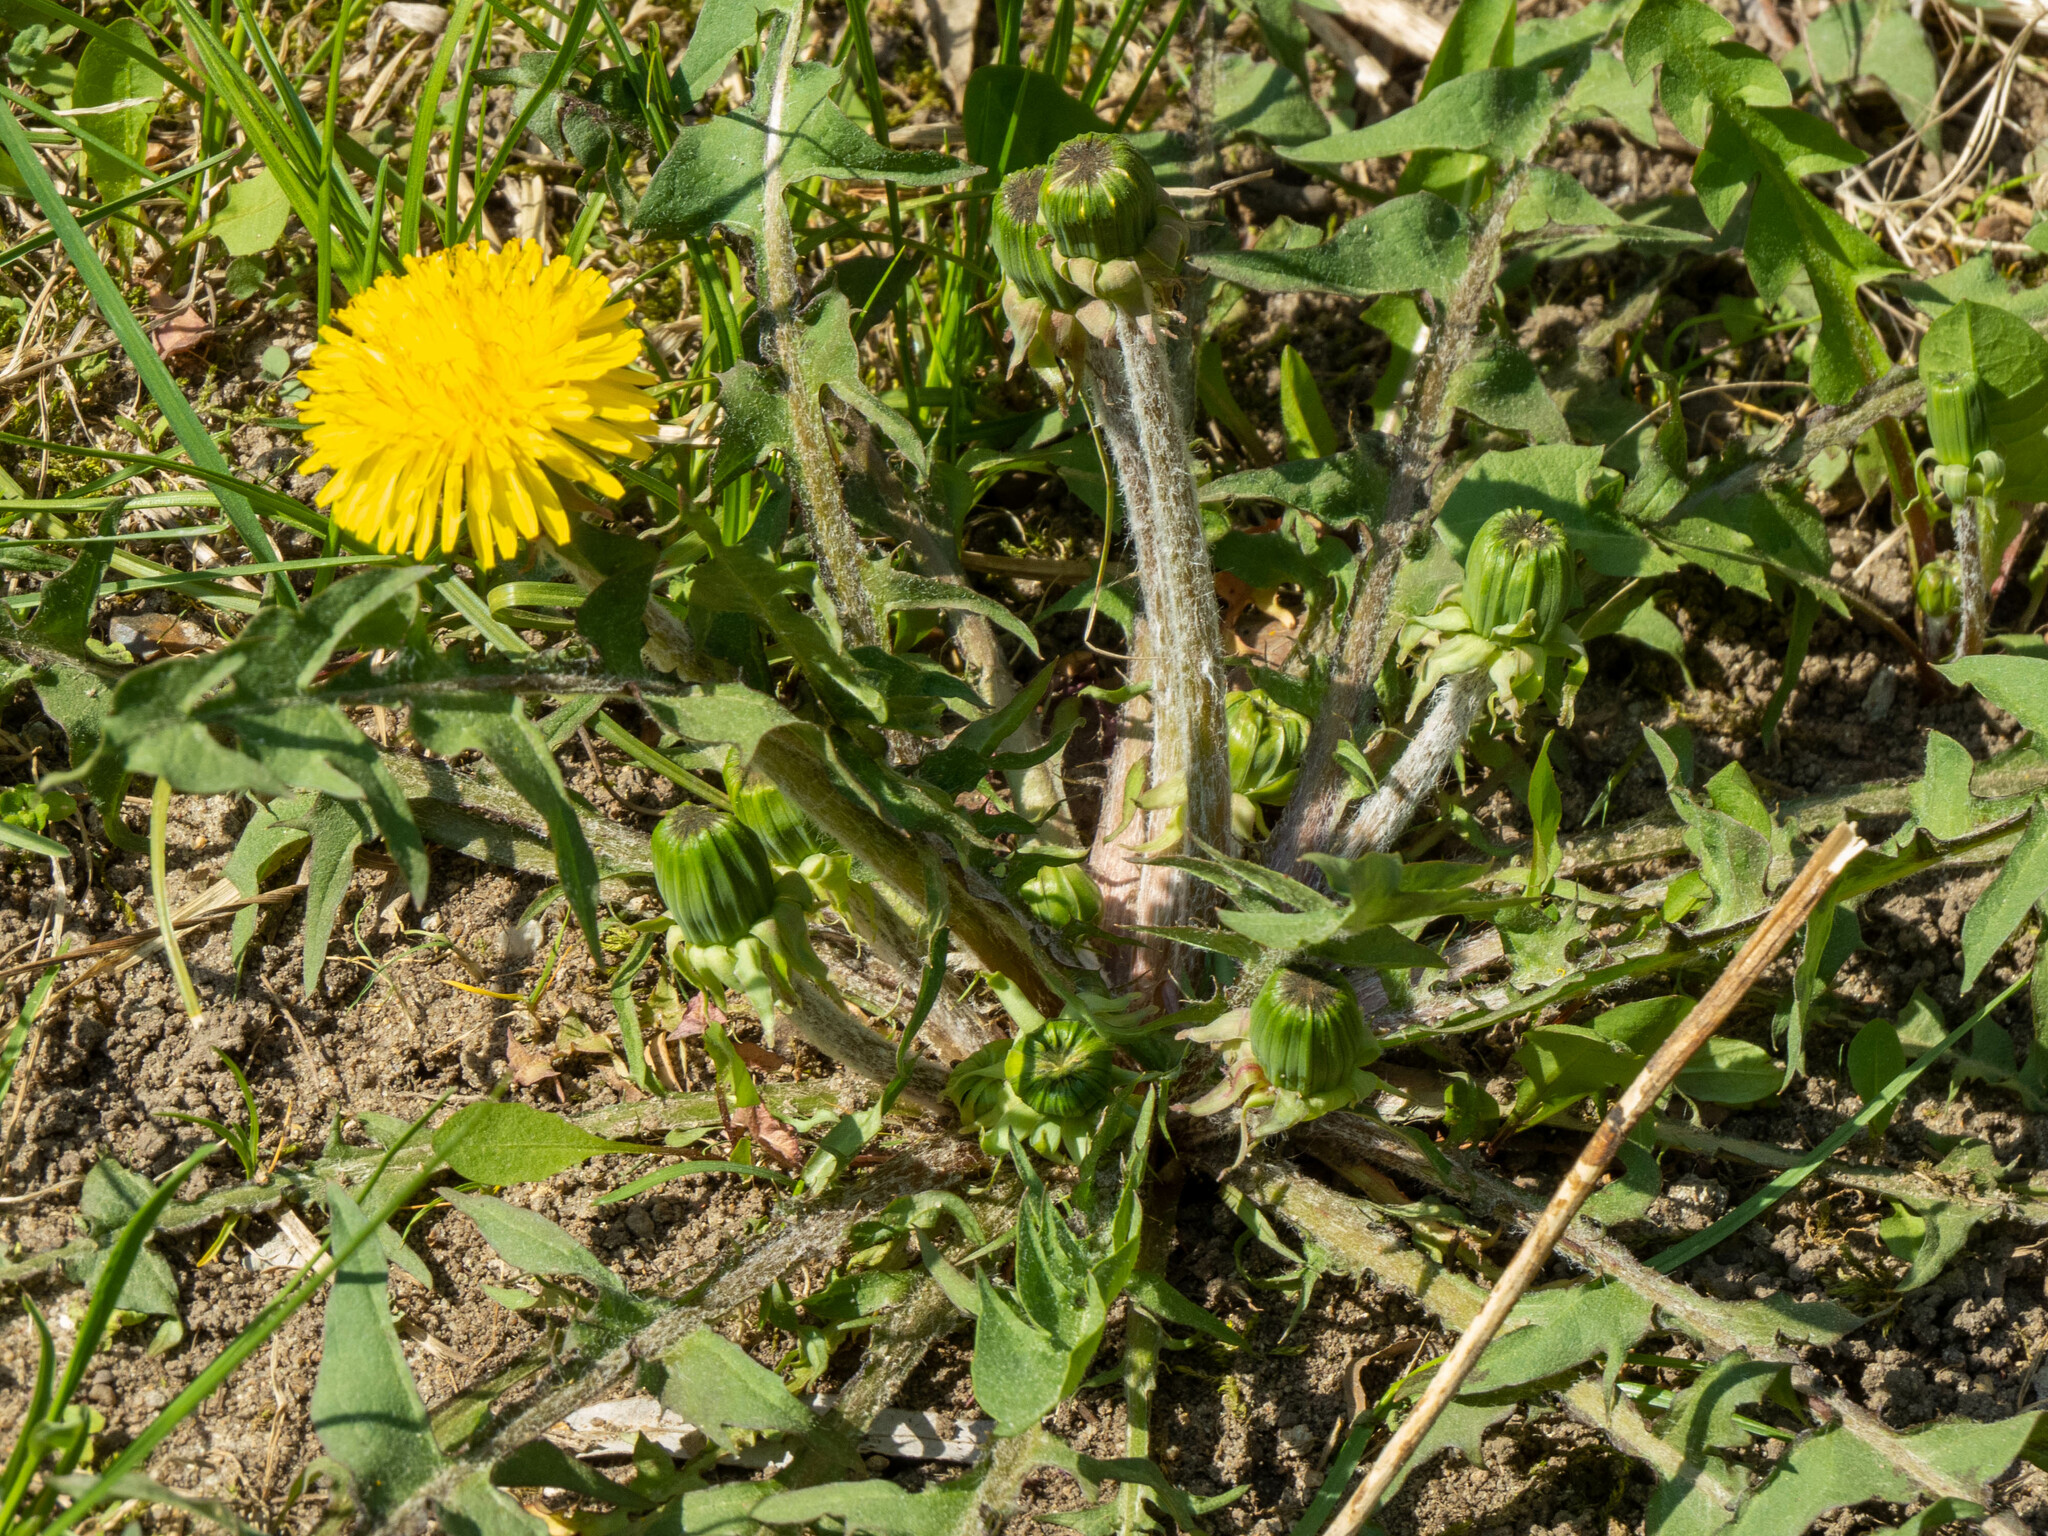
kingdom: Plantae
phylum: Tracheophyta
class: Magnoliopsida
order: Asterales
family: Asteraceae
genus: Taraxacum
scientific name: Taraxacum officinale
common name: Common dandelion
